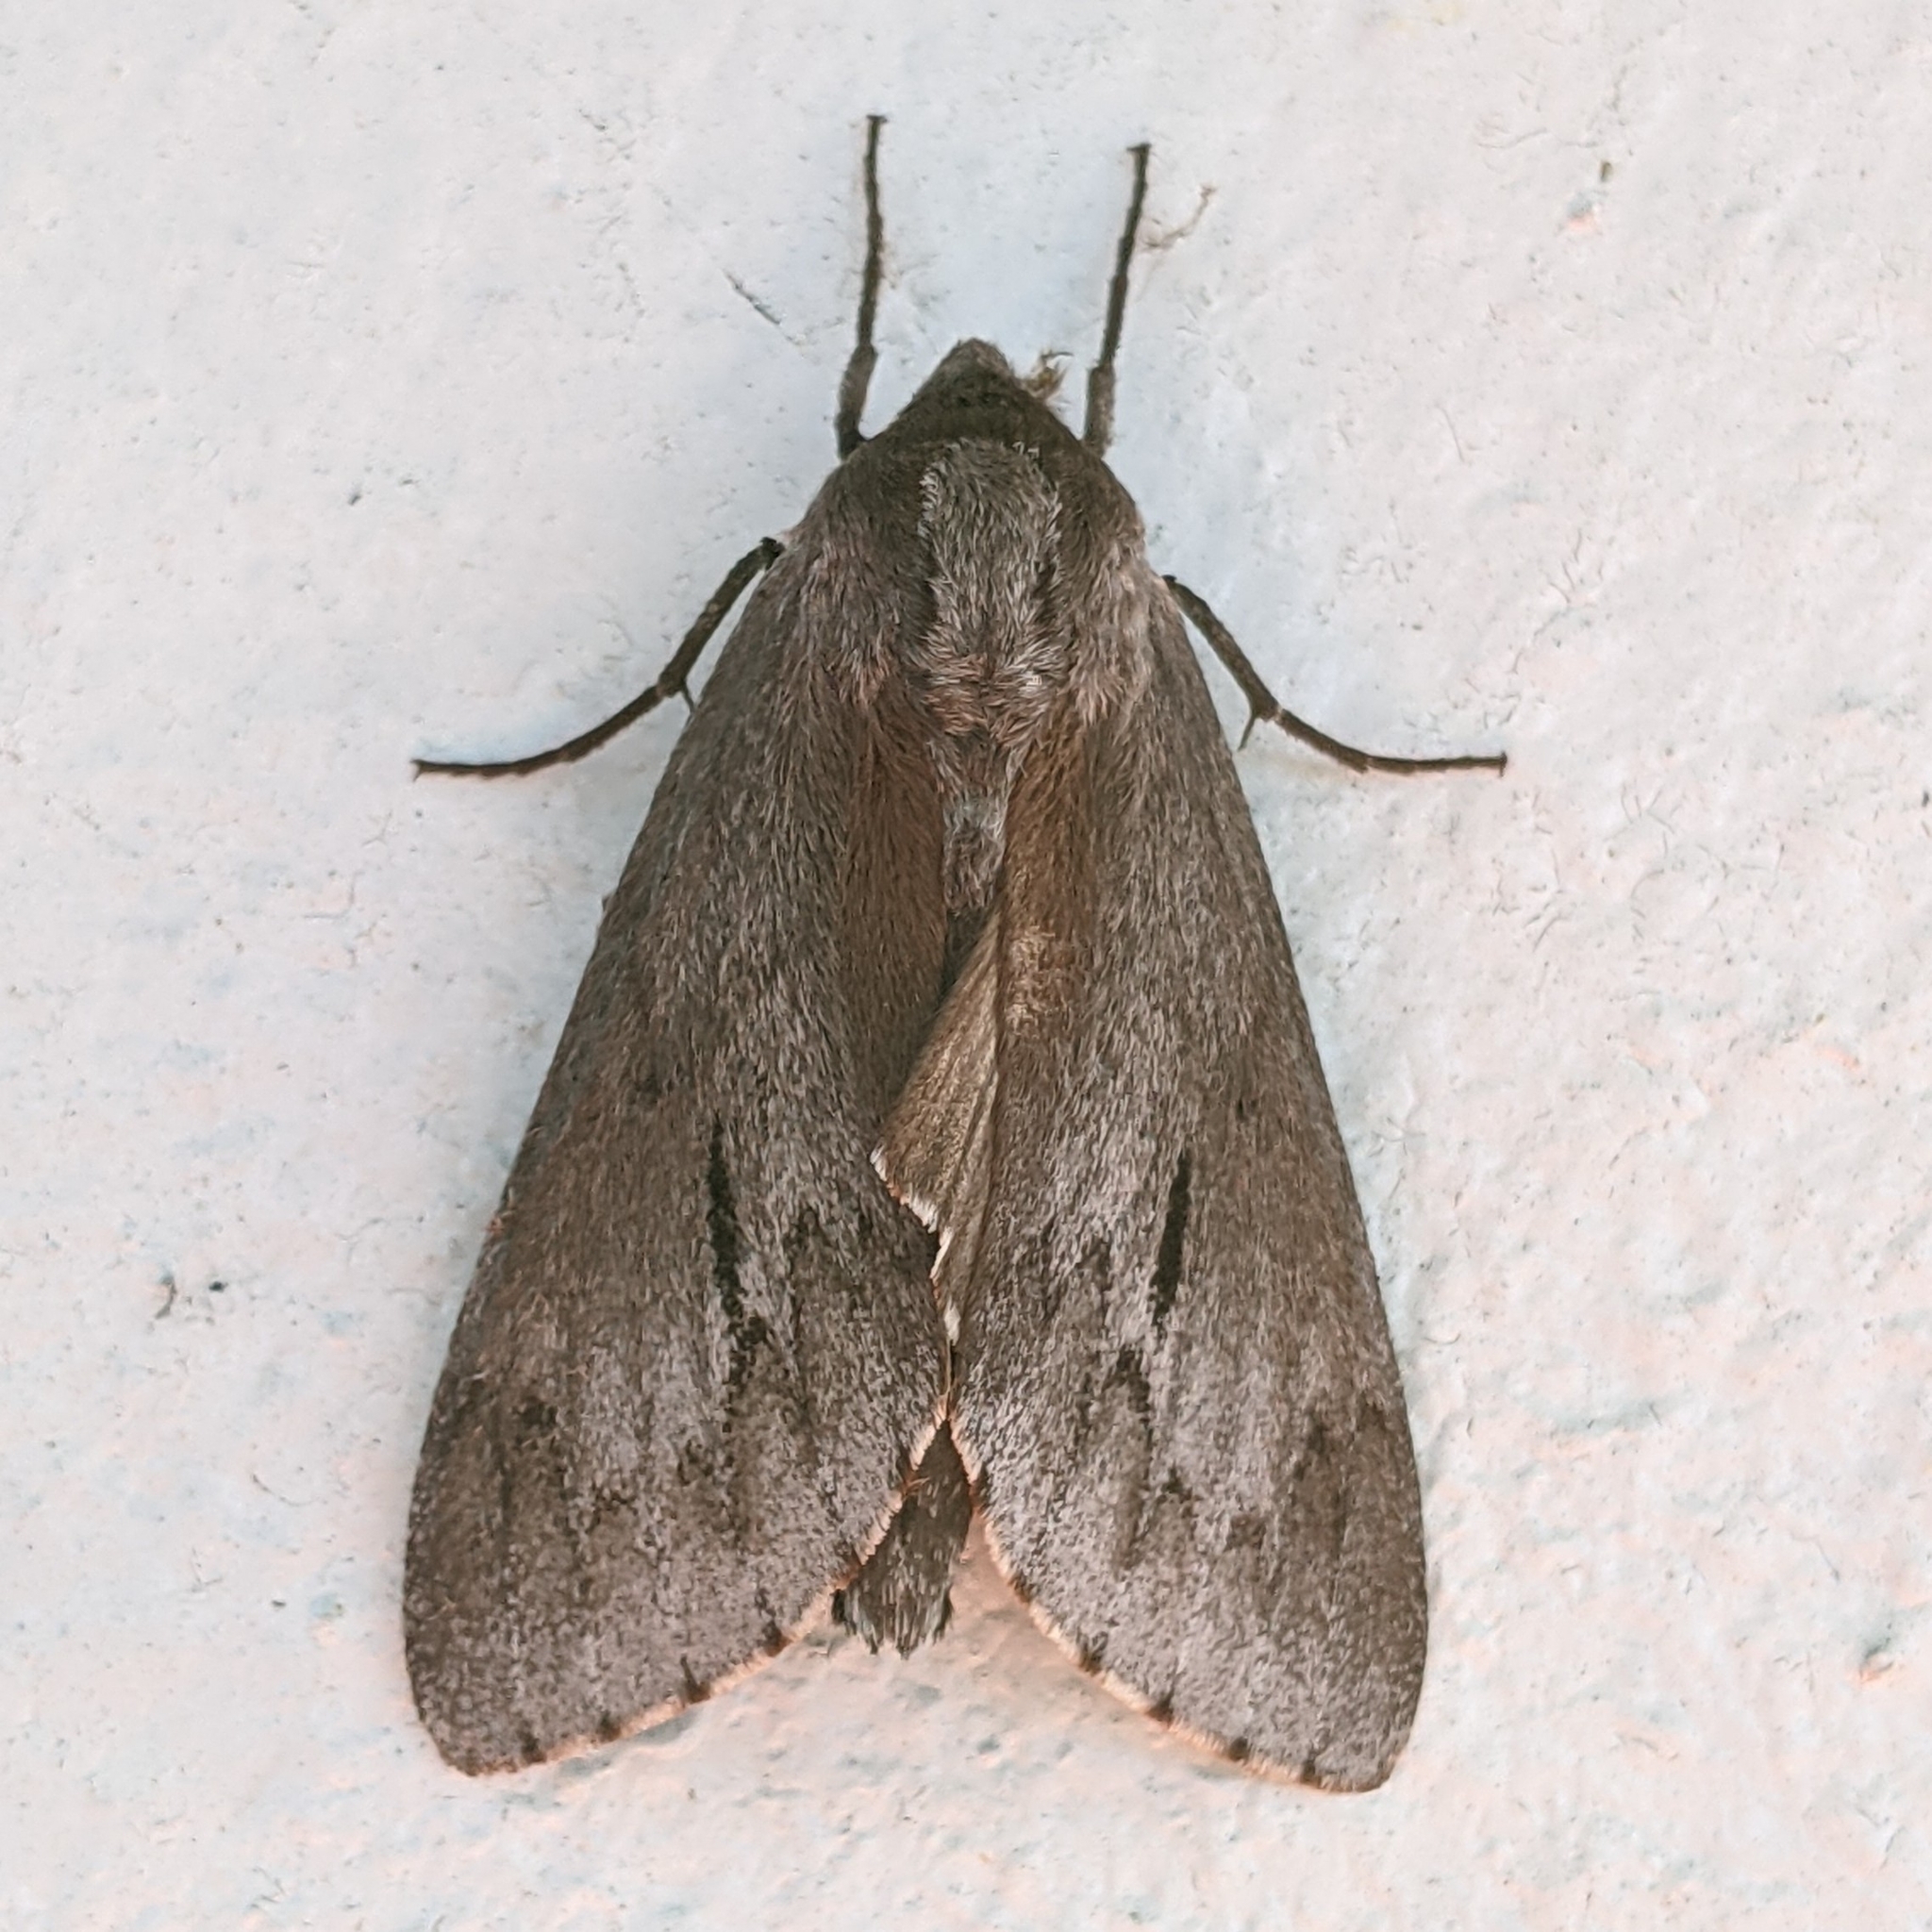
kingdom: Animalia
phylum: Arthropoda
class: Insecta
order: Lepidoptera
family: Sphingidae
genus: Lapara
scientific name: Lapara coniferarum
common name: Southern pine sphinx
